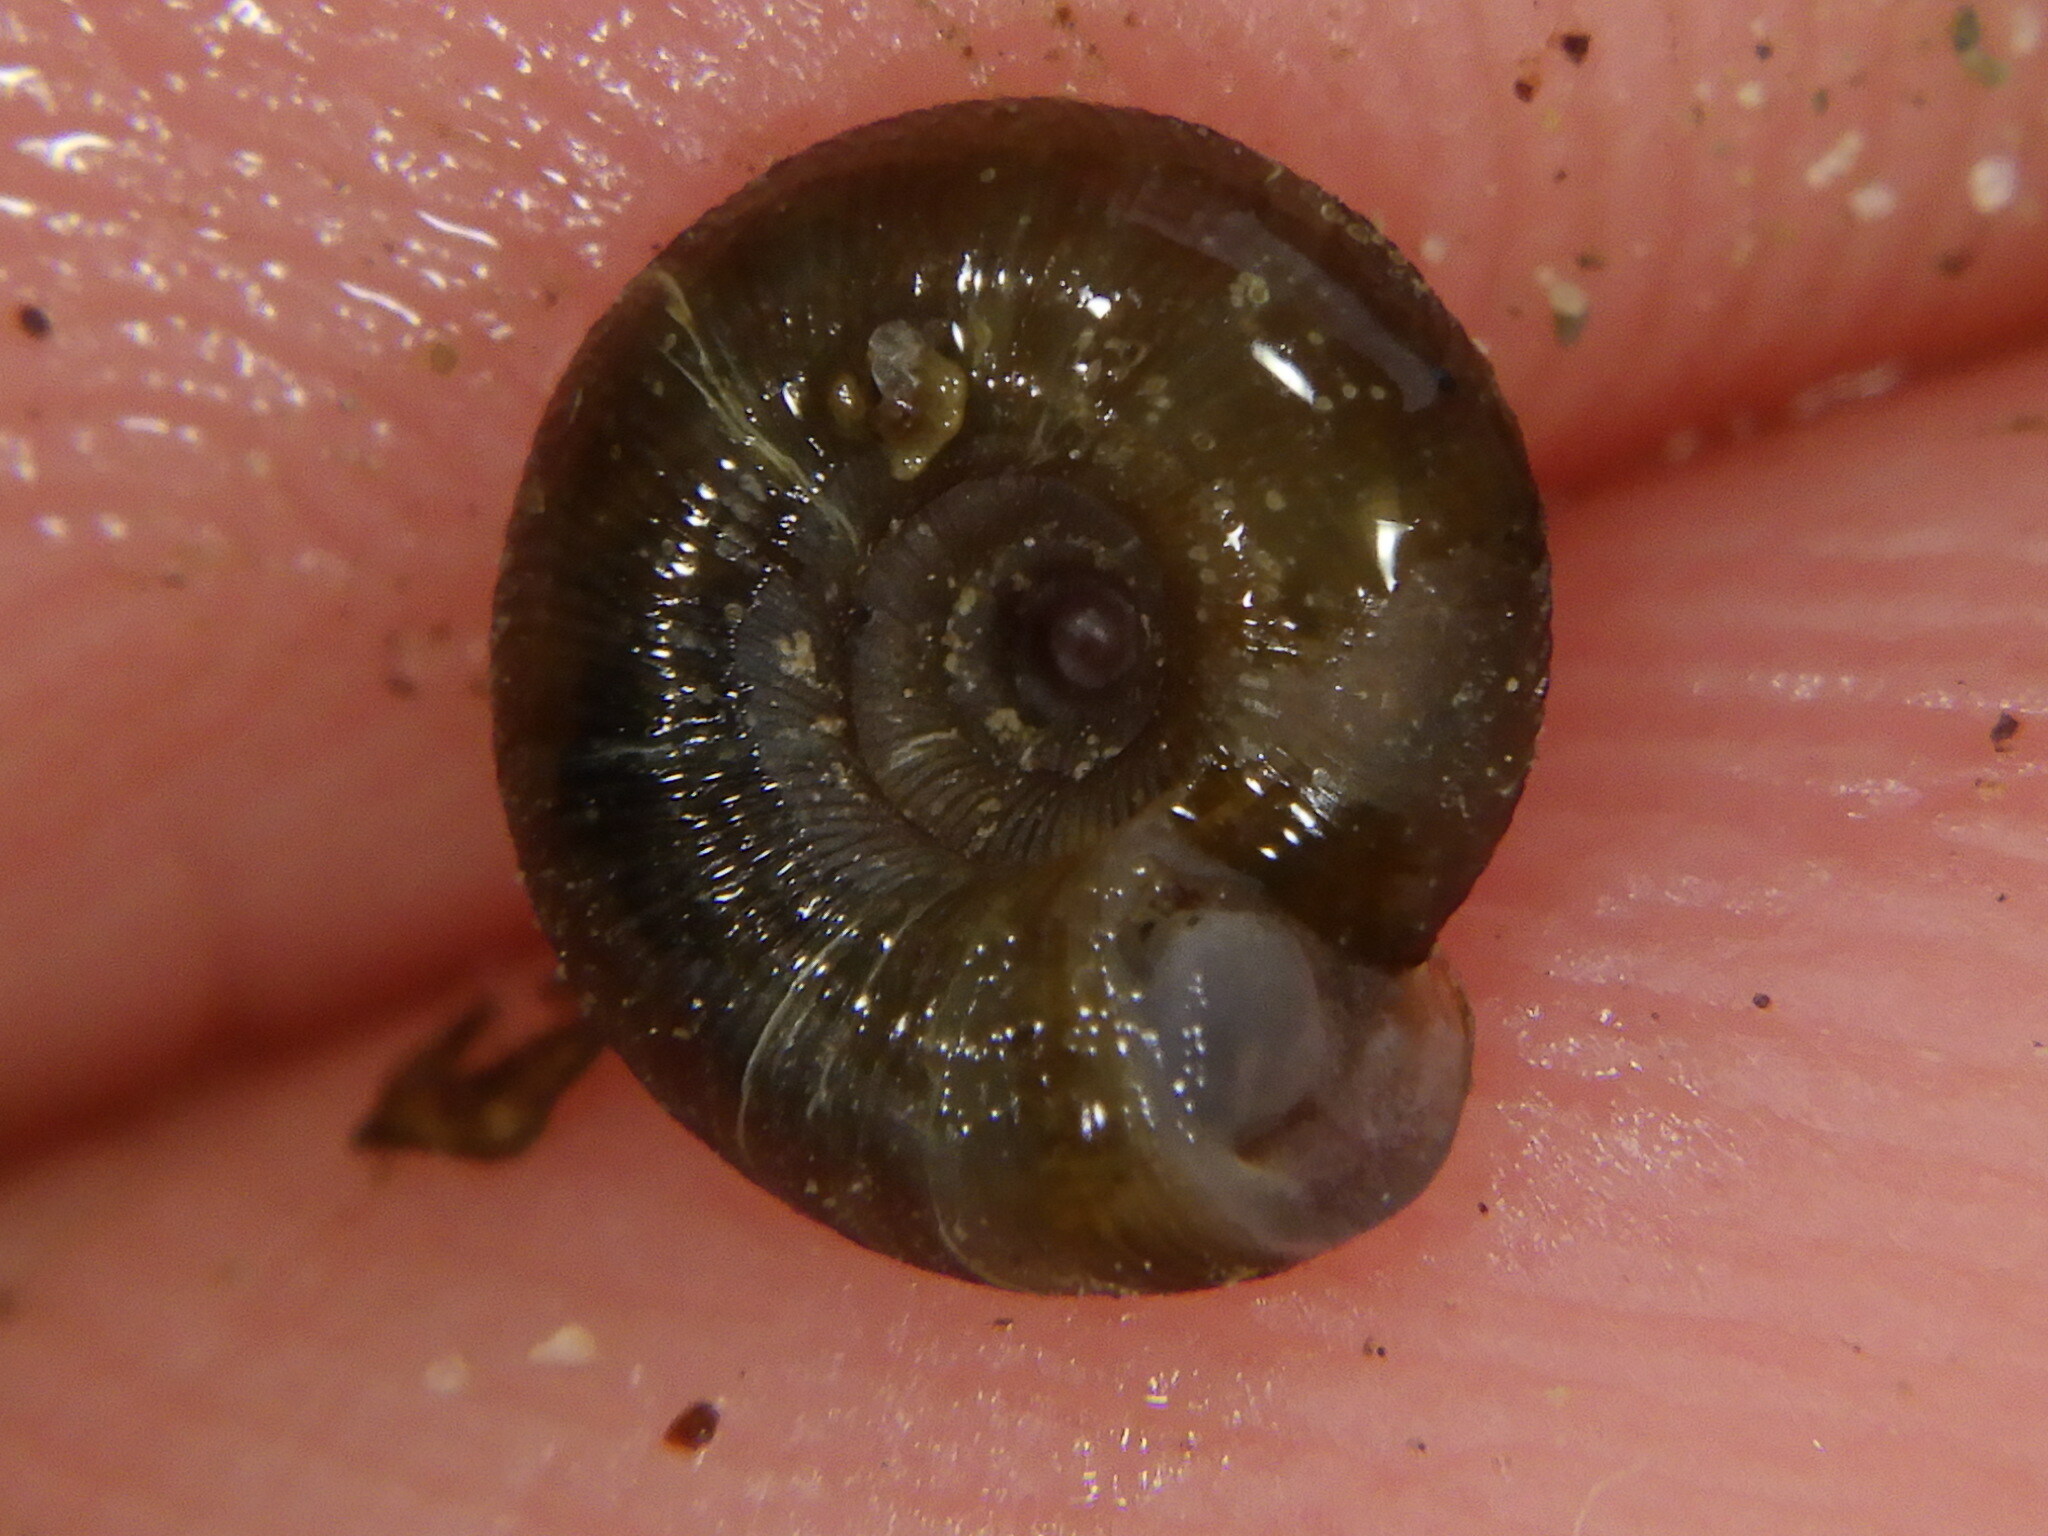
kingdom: Animalia
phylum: Mollusca
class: Gastropoda
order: Stylommatophora
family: Discidae
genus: Discus
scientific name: Discus rotundatus
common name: Rounded snail
